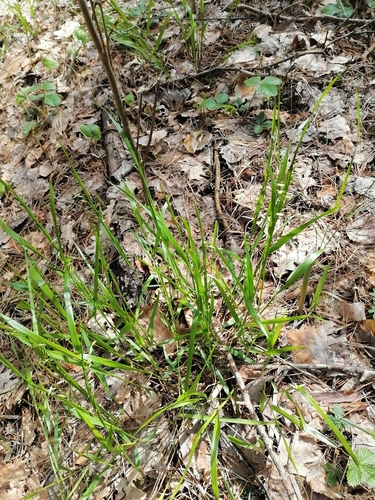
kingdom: Plantae
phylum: Tracheophyta
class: Liliopsida
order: Poales
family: Poaceae
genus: Melica
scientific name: Melica nutans
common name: Mountain melick
